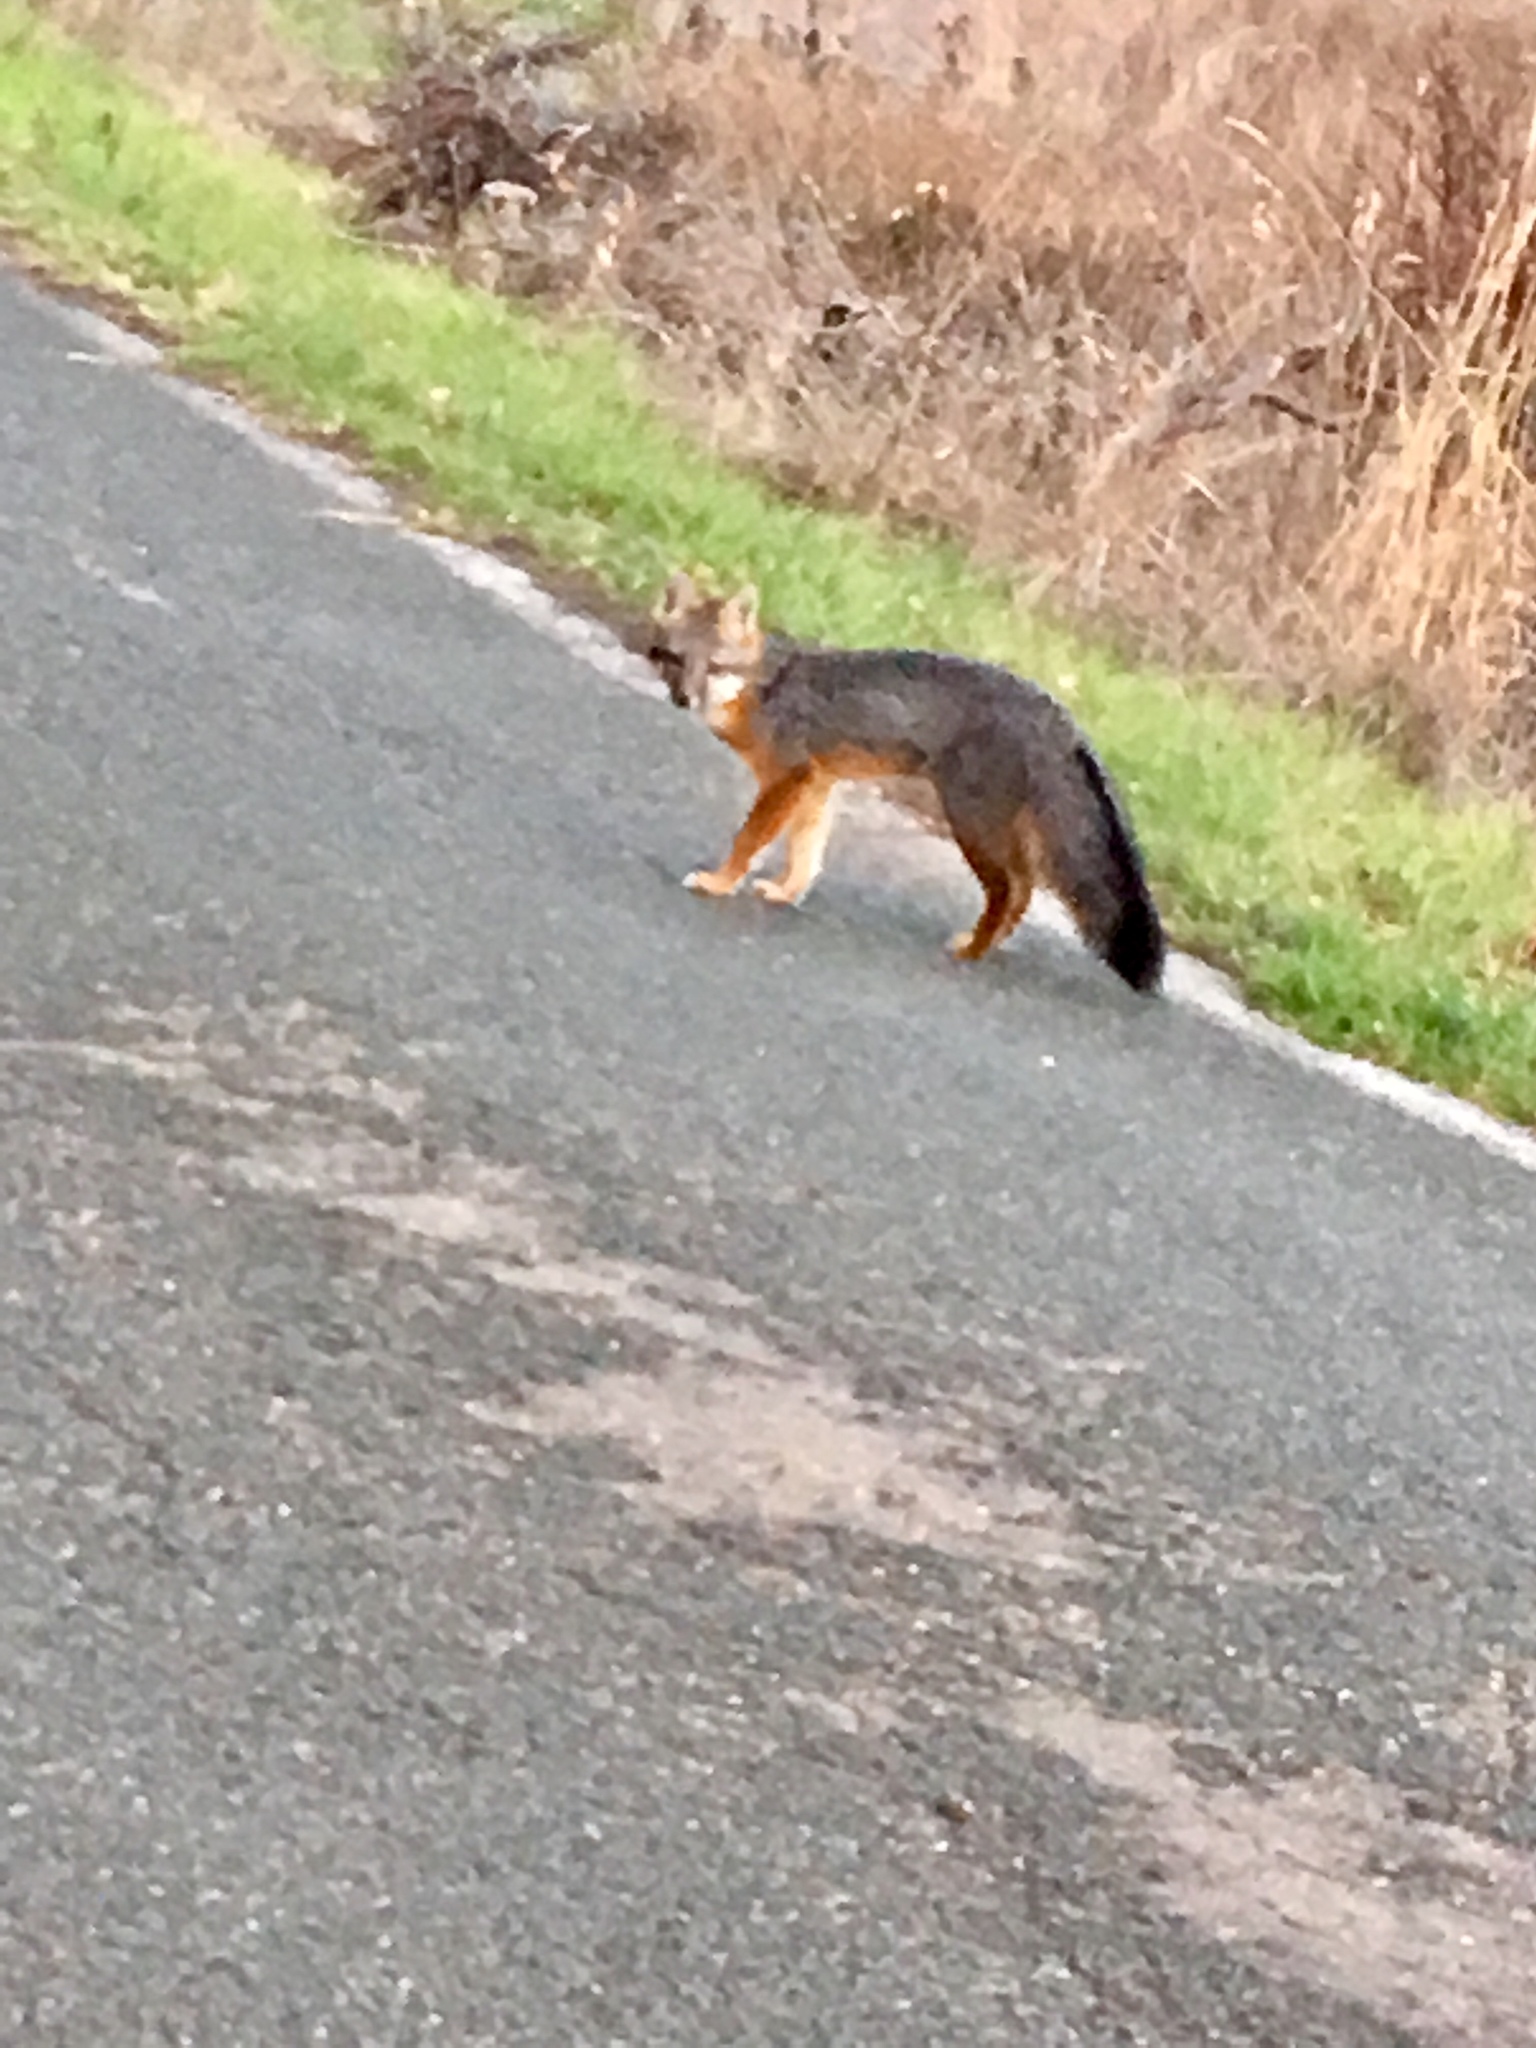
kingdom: Animalia
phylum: Chordata
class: Mammalia
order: Carnivora
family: Canidae
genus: Urocyon
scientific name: Urocyon cinereoargenteus
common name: Gray fox
